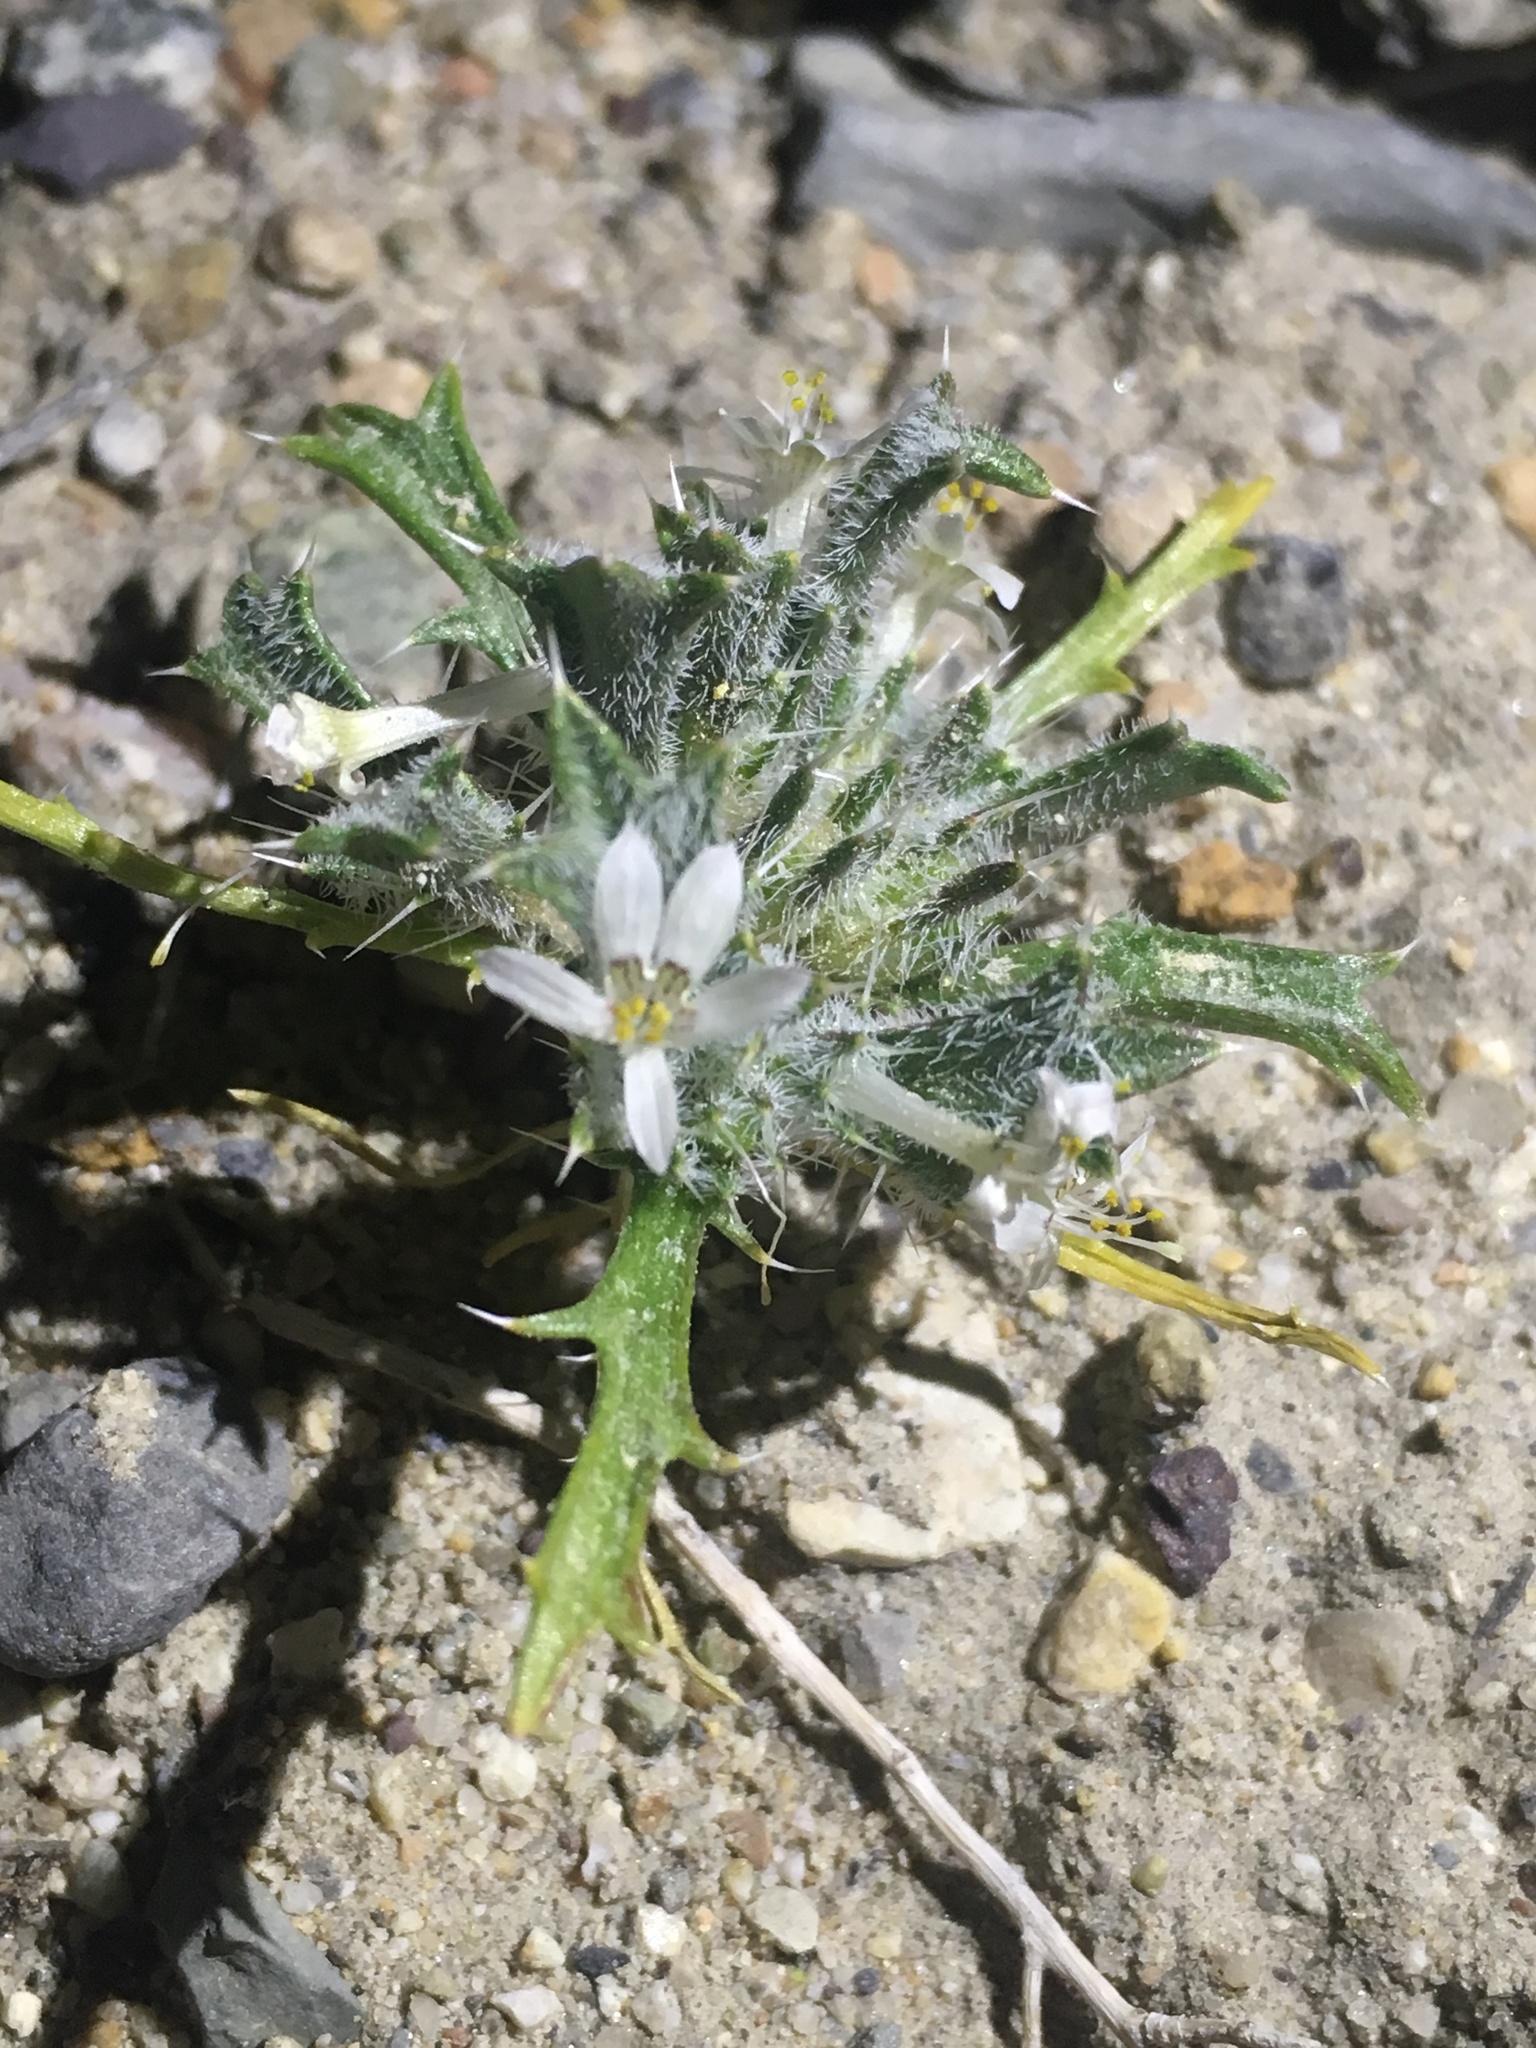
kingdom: Plantae
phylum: Tracheophyta
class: Magnoliopsida
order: Ericales
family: Polemoniaceae
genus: Loeseliastrum
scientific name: Loeseliastrum schottii
